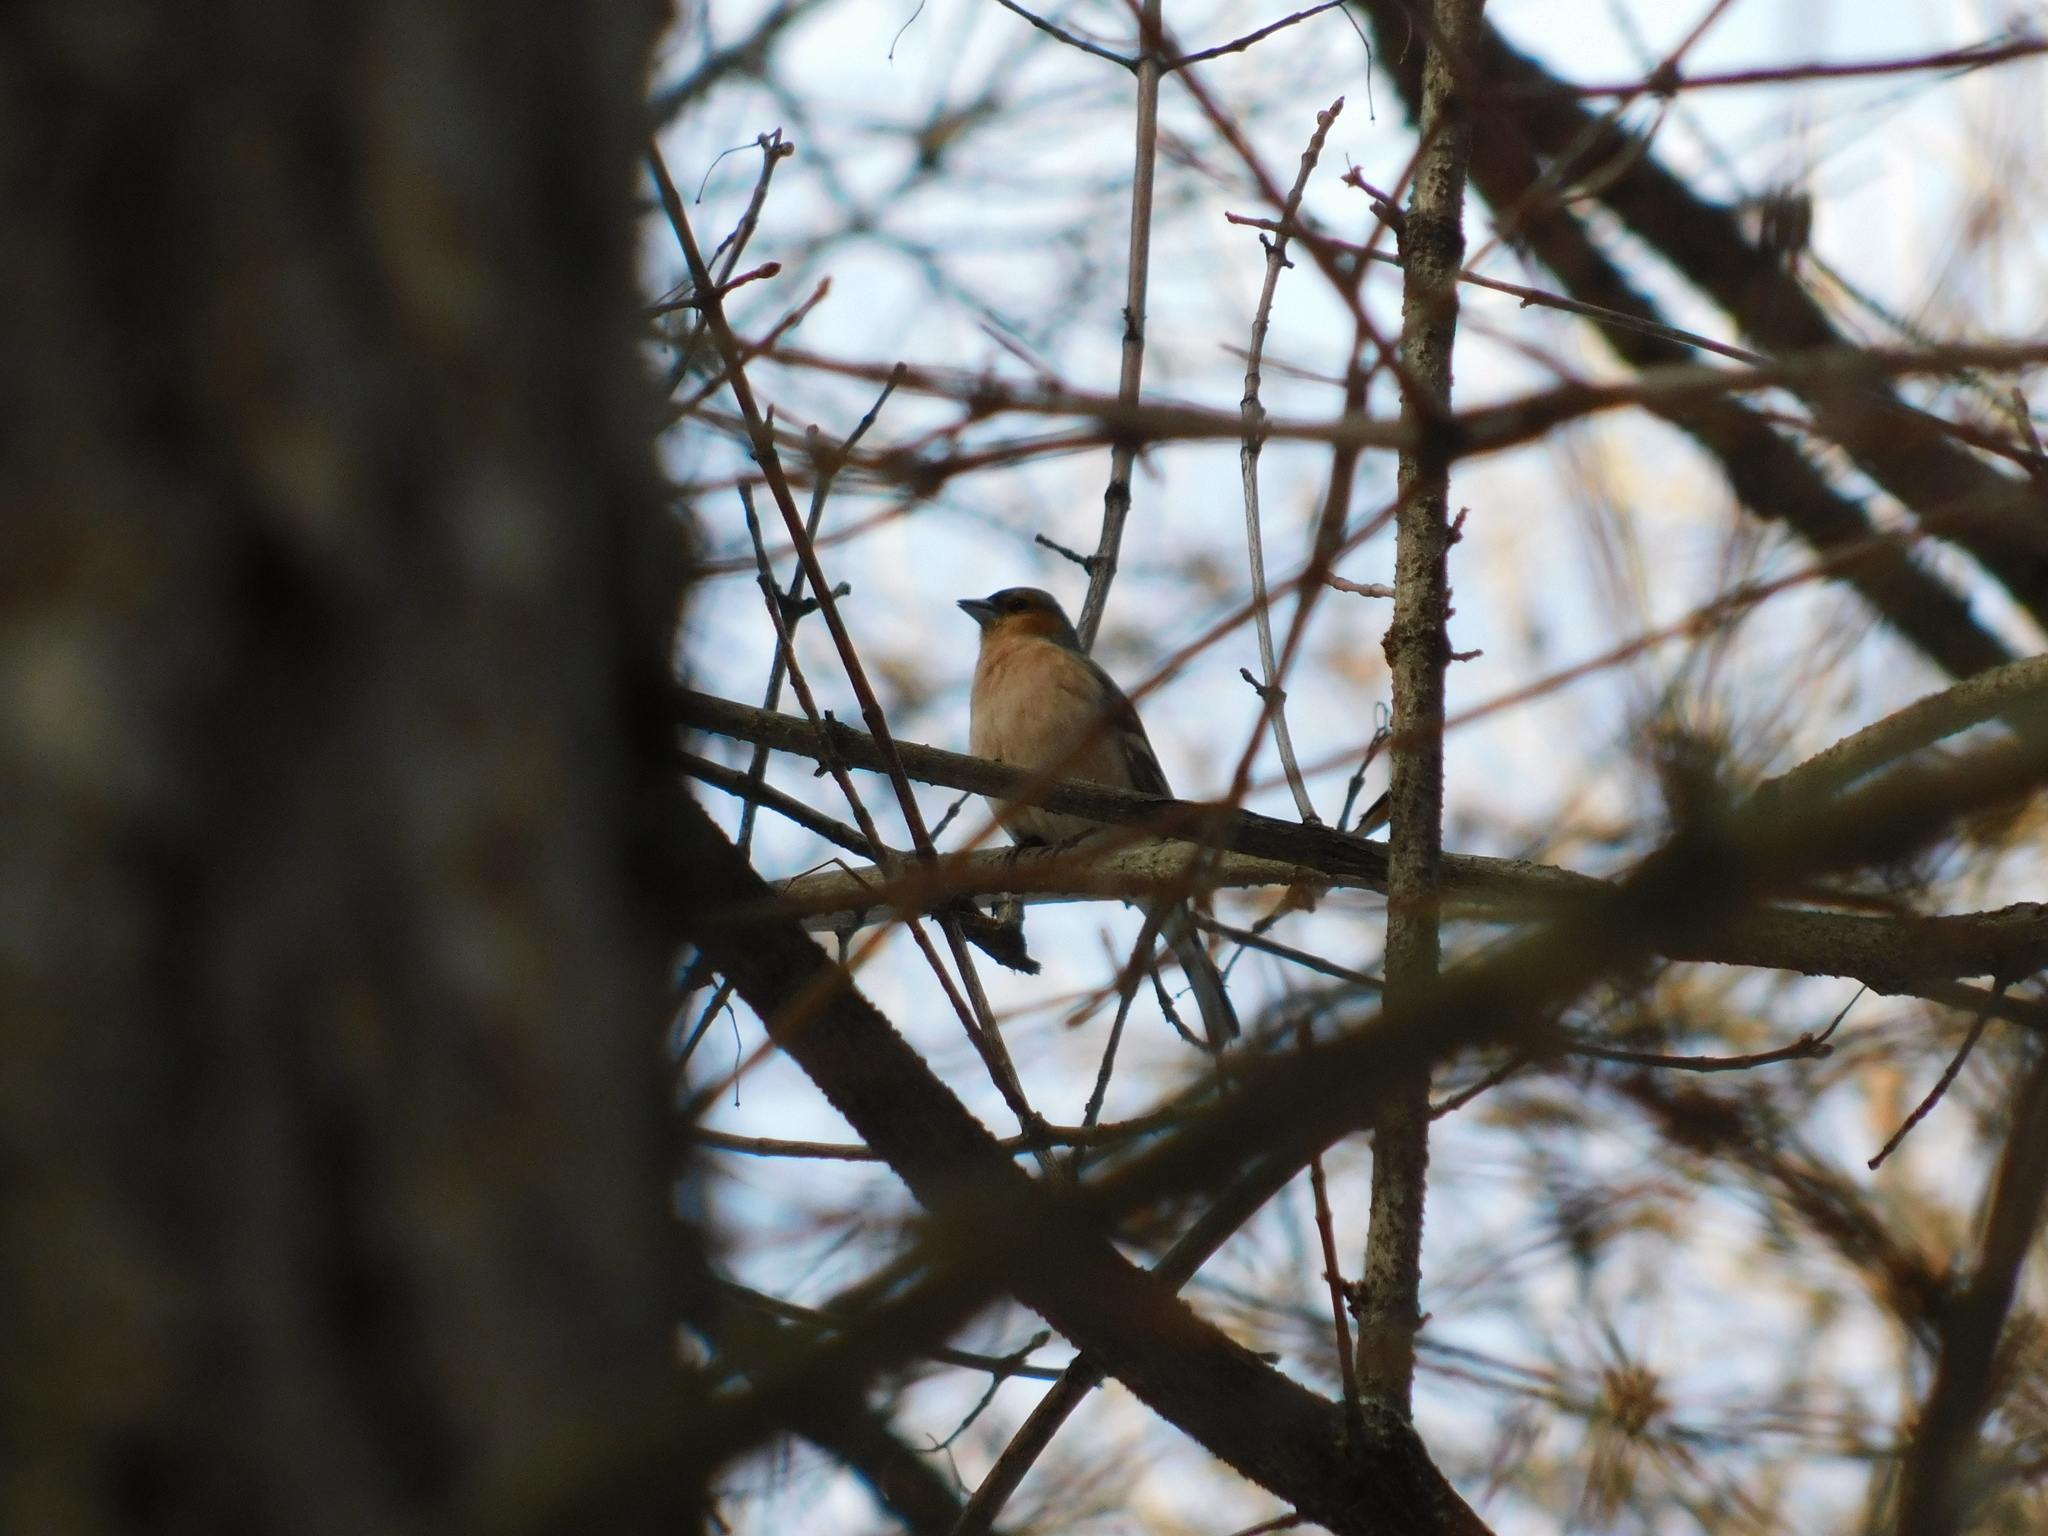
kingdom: Animalia
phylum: Chordata
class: Aves
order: Passeriformes
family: Fringillidae
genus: Fringilla
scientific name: Fringilla coelebs
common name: Common chaffinch
